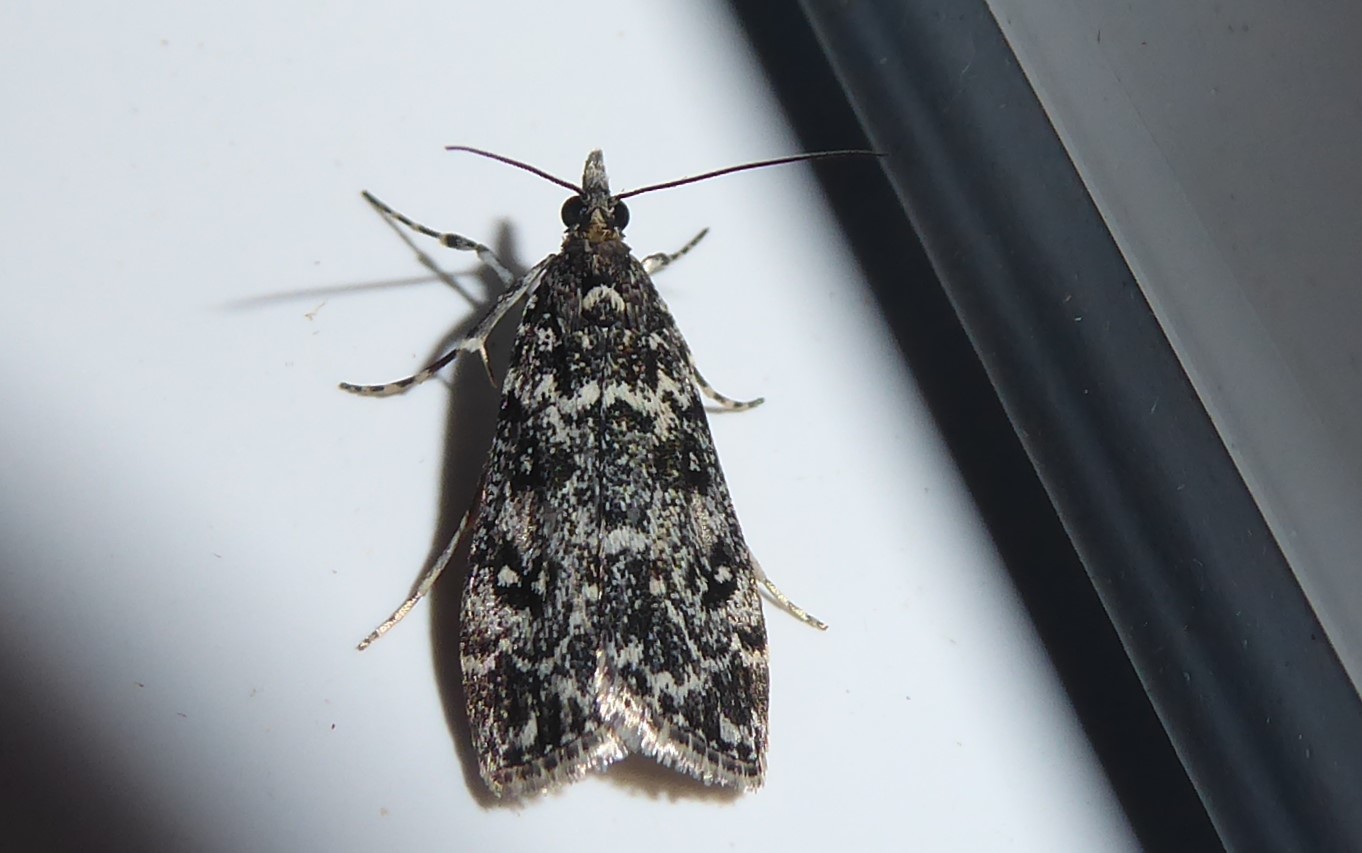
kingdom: Animalia
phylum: Arthropoda
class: Insecta
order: Lepidoptera
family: Crambidae
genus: Eudonia
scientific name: Eudonia philerga
